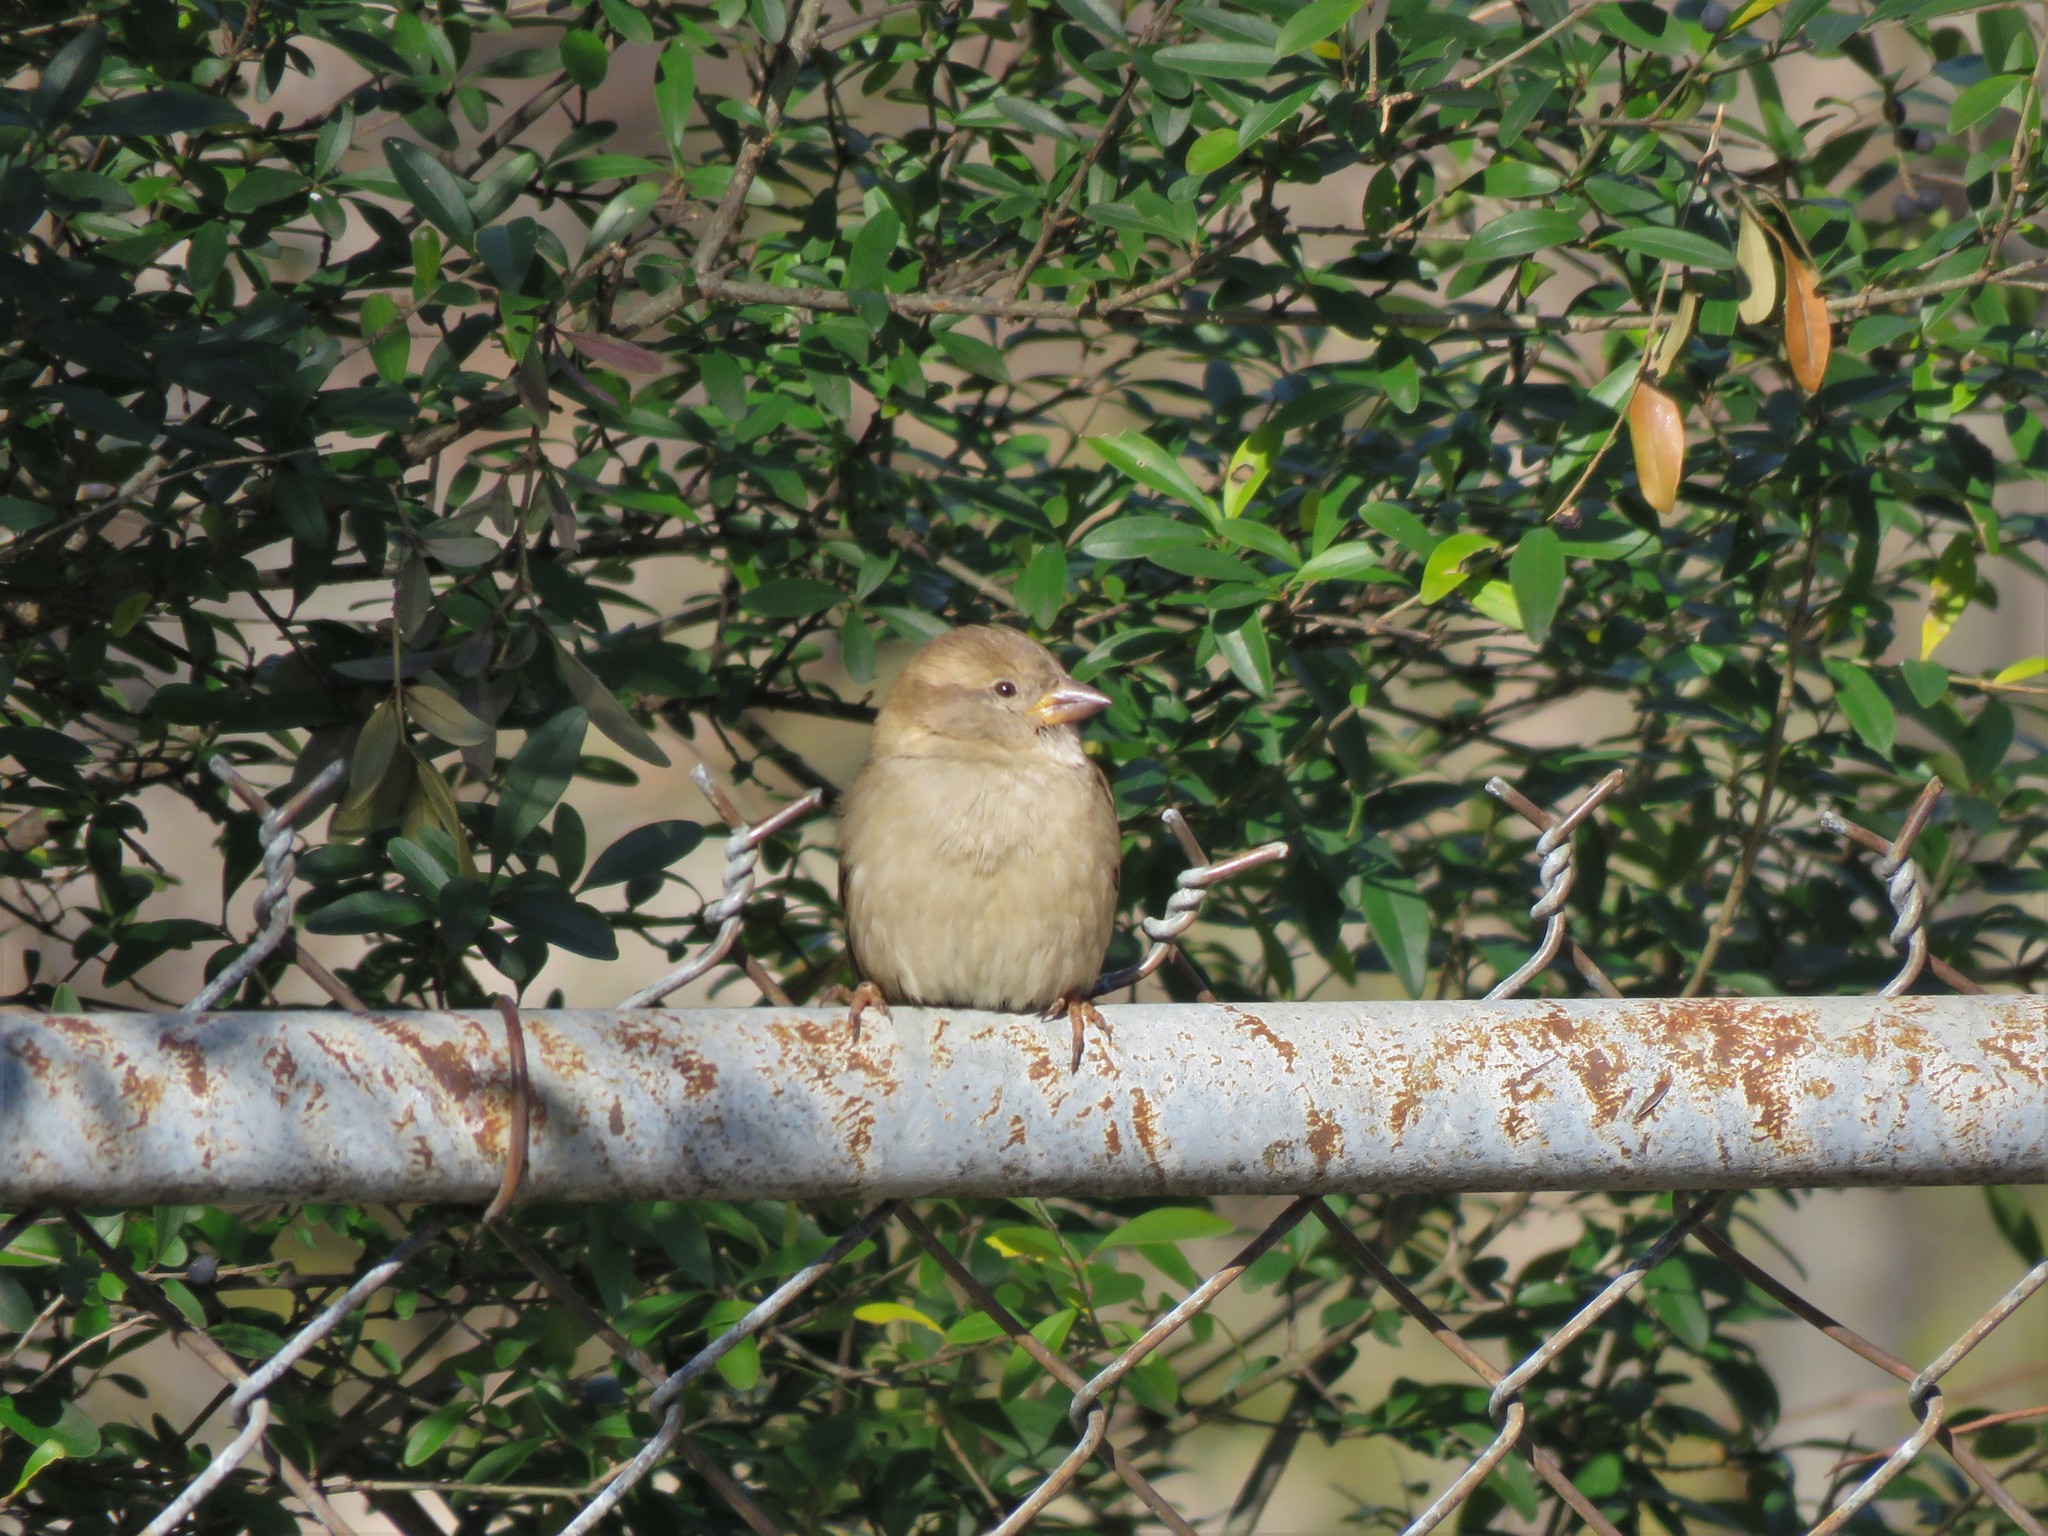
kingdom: Animalia
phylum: Chordata
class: Aves
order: Passeriformes
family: Passeridae
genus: Passer
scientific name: Passer domesticus
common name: House sparrow
